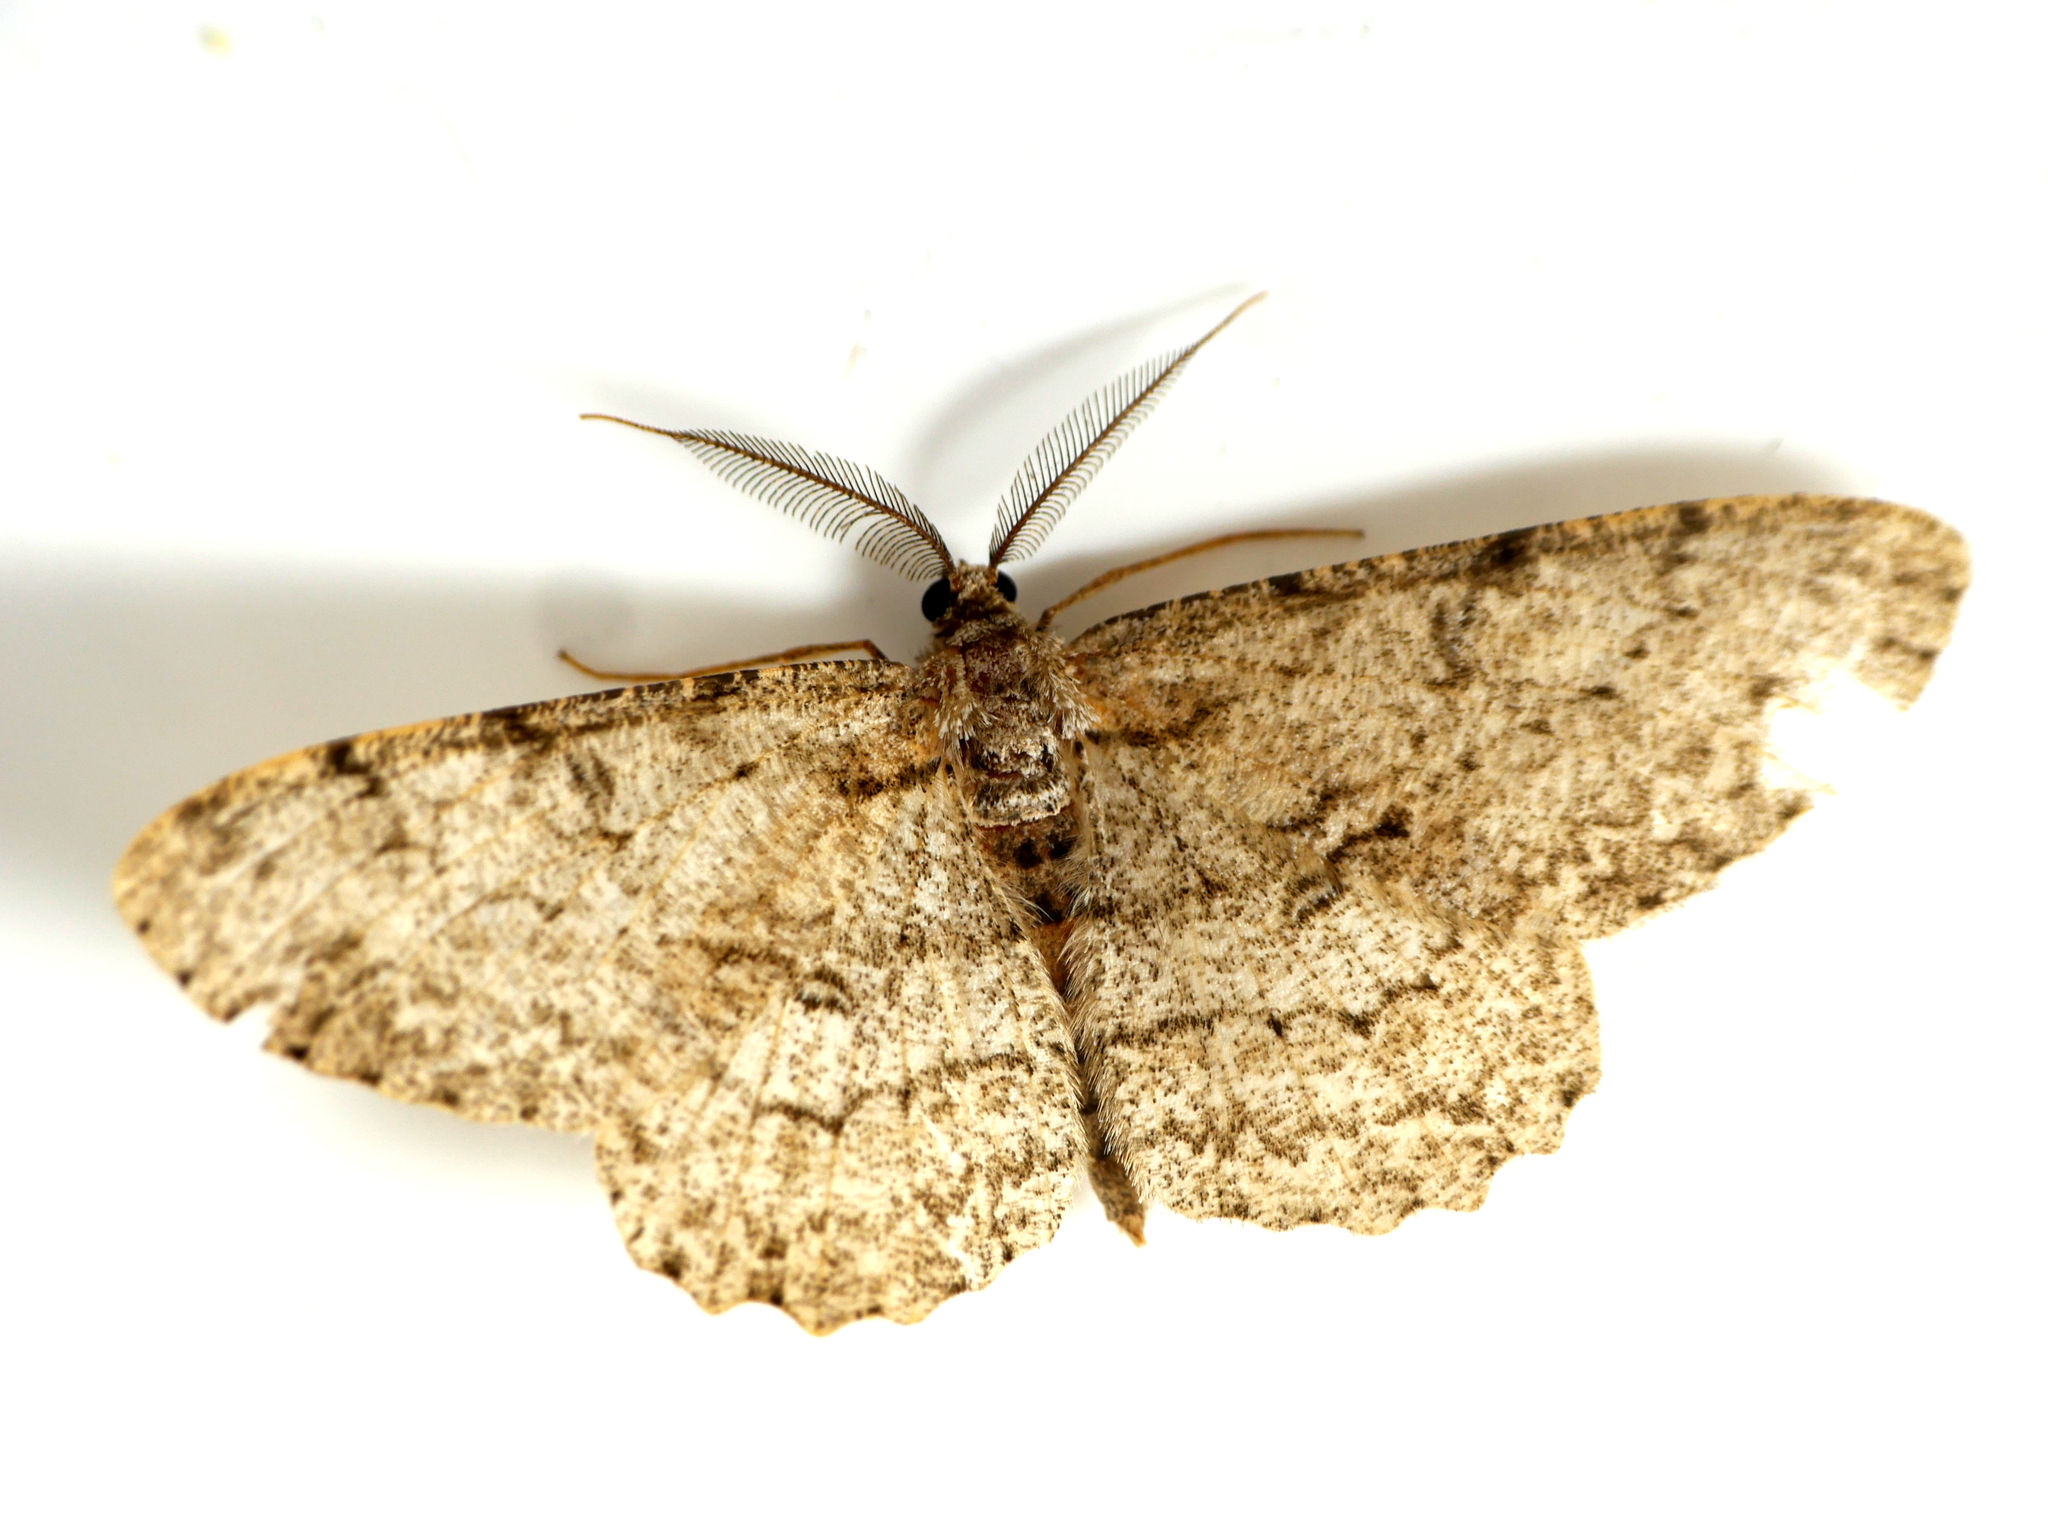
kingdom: Animalia
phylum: Arthropoda
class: Insecta
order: Lepidoptera
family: Geometridae
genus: Hypomecis
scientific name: Hypomecis punctinalis
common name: Pale oak beauty
